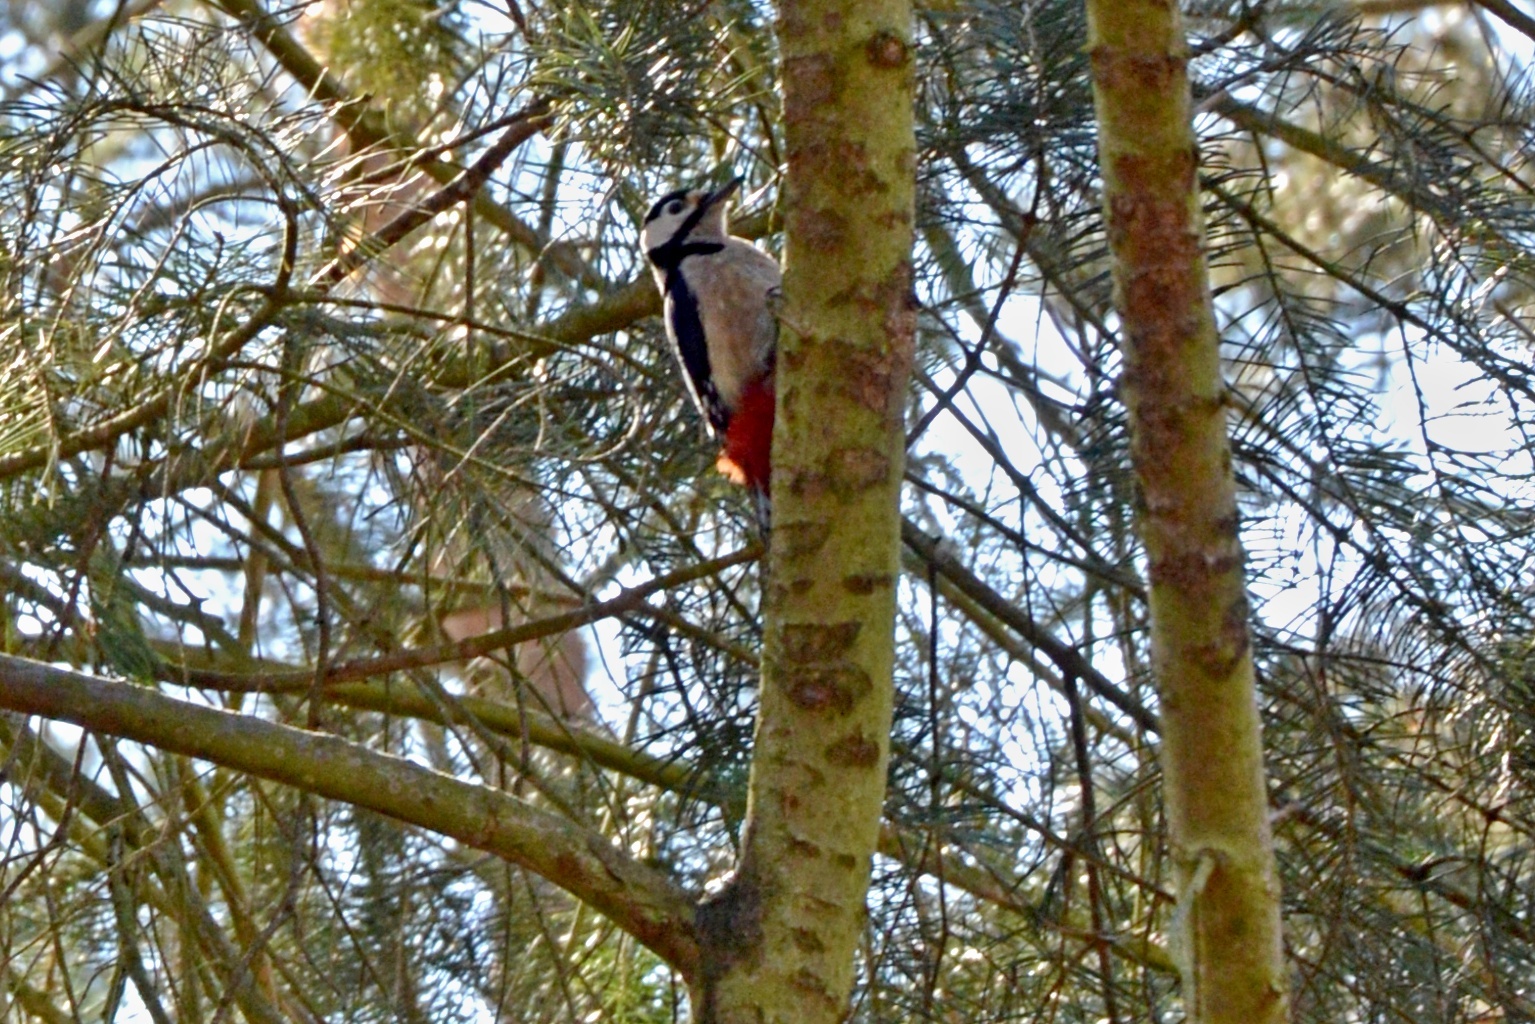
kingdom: Animalia
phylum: Chordata
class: Aves
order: Piciformes
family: Picidae
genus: Dendrocopos
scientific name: Dendrocopos major
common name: Great spotted woodpecker
